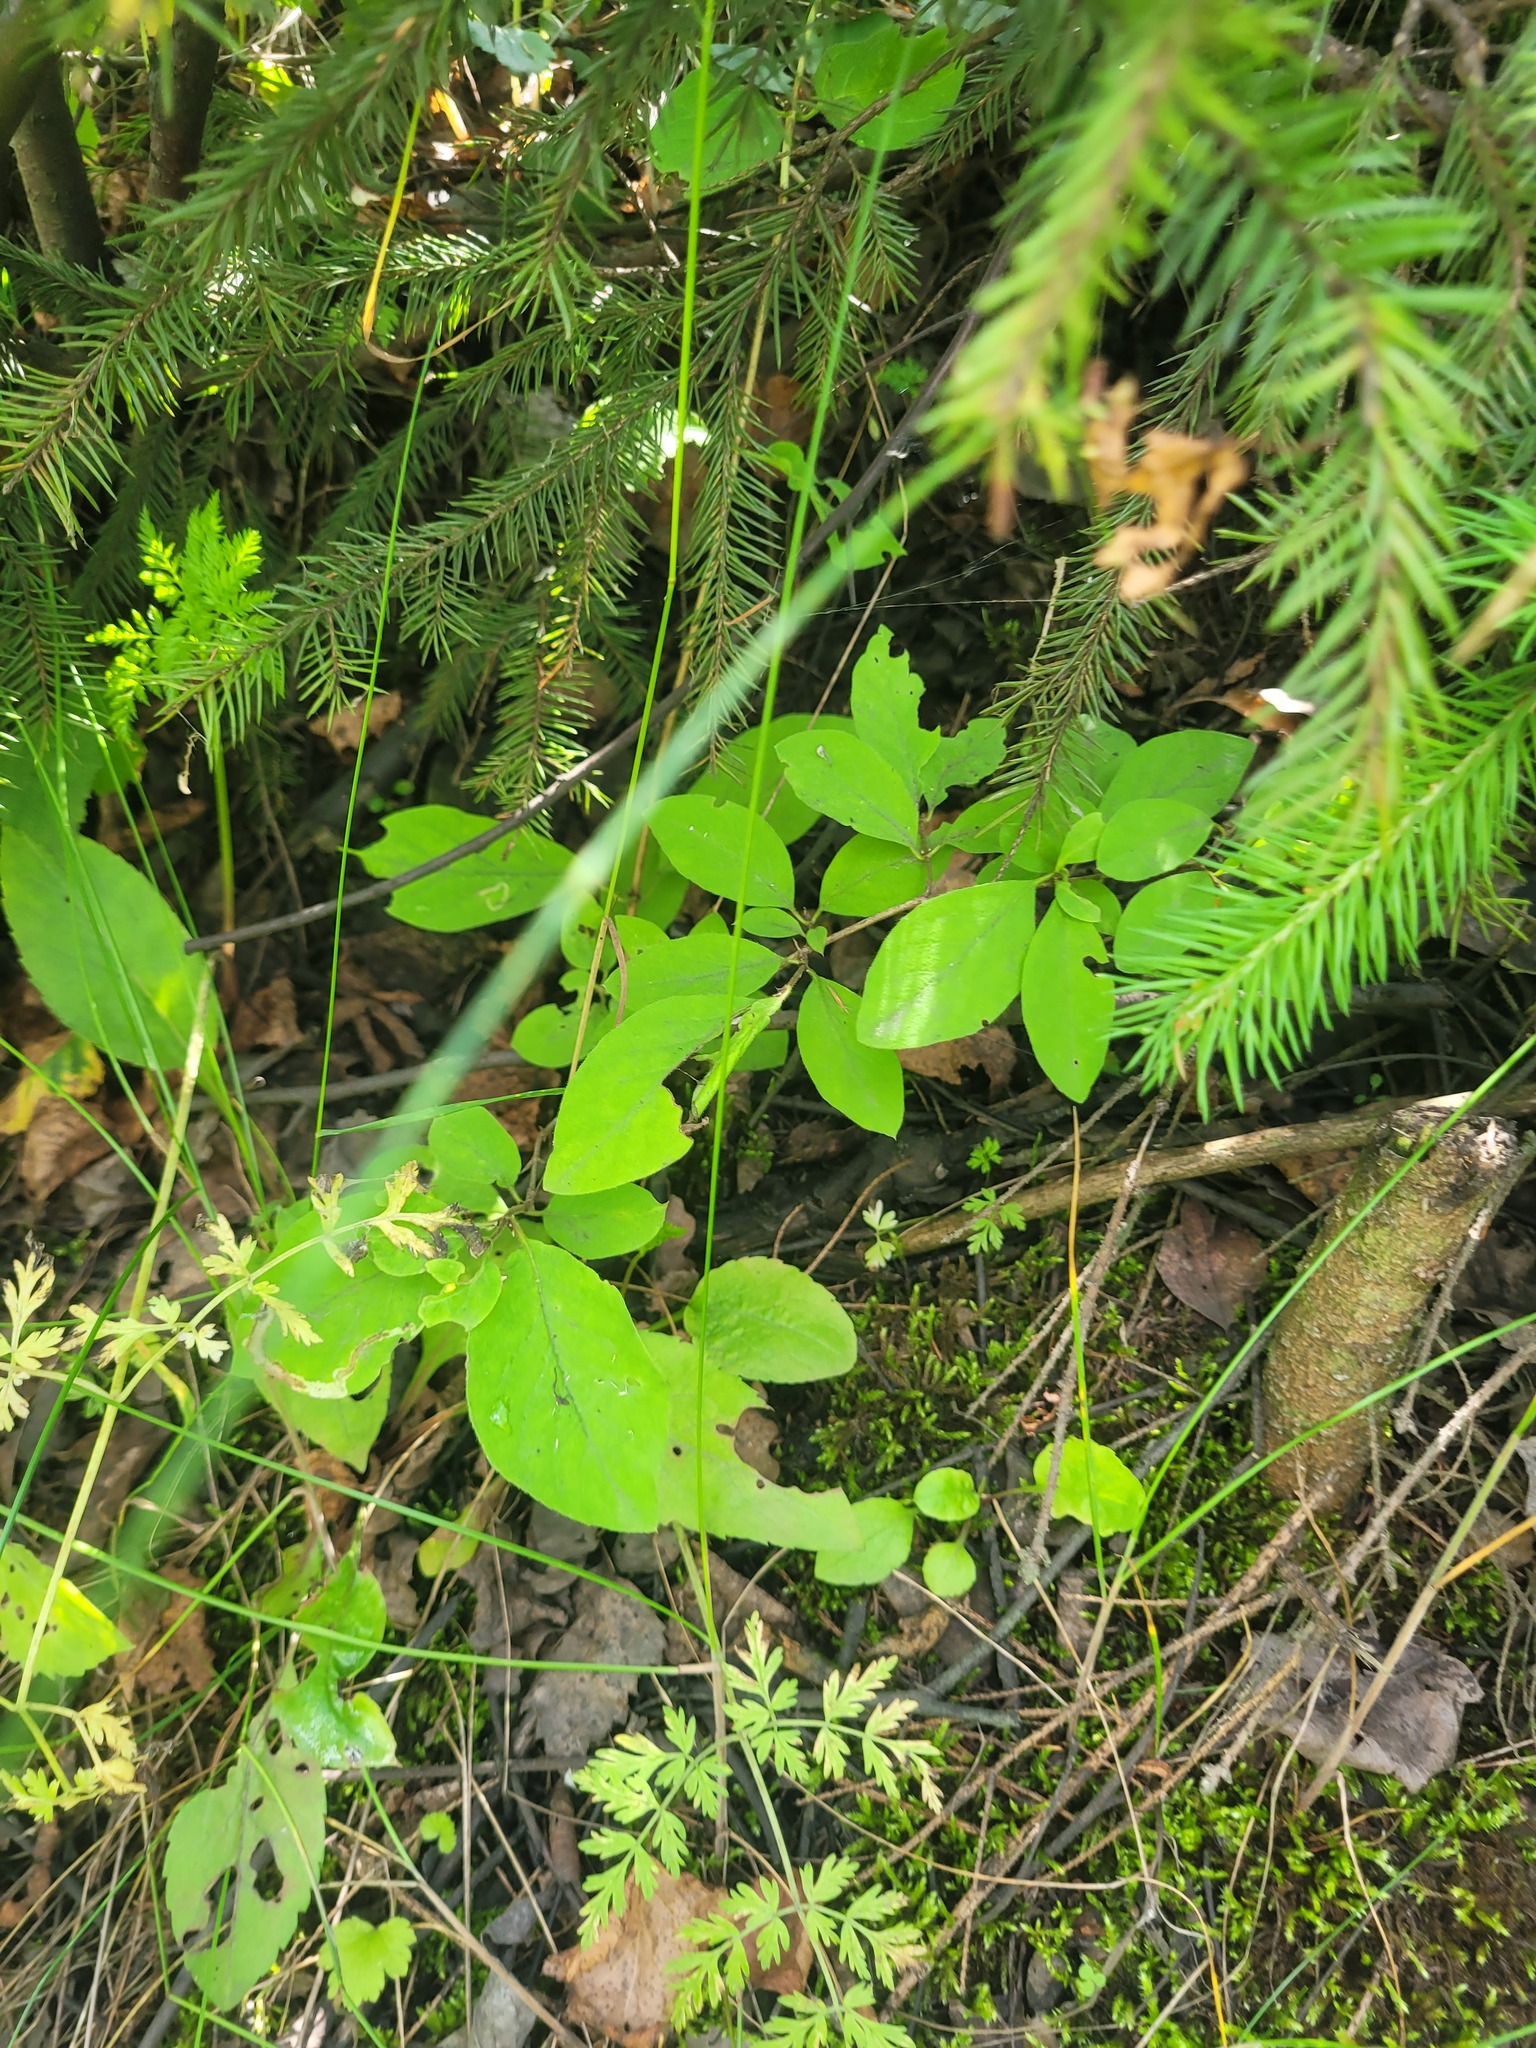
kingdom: Plantae
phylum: Tracheophyta
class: Magnoliopsida
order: Dipsacales
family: Caprifoliaceae
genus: Lonicera
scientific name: Lonicera xylosteum
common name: Fly honeysuckle
